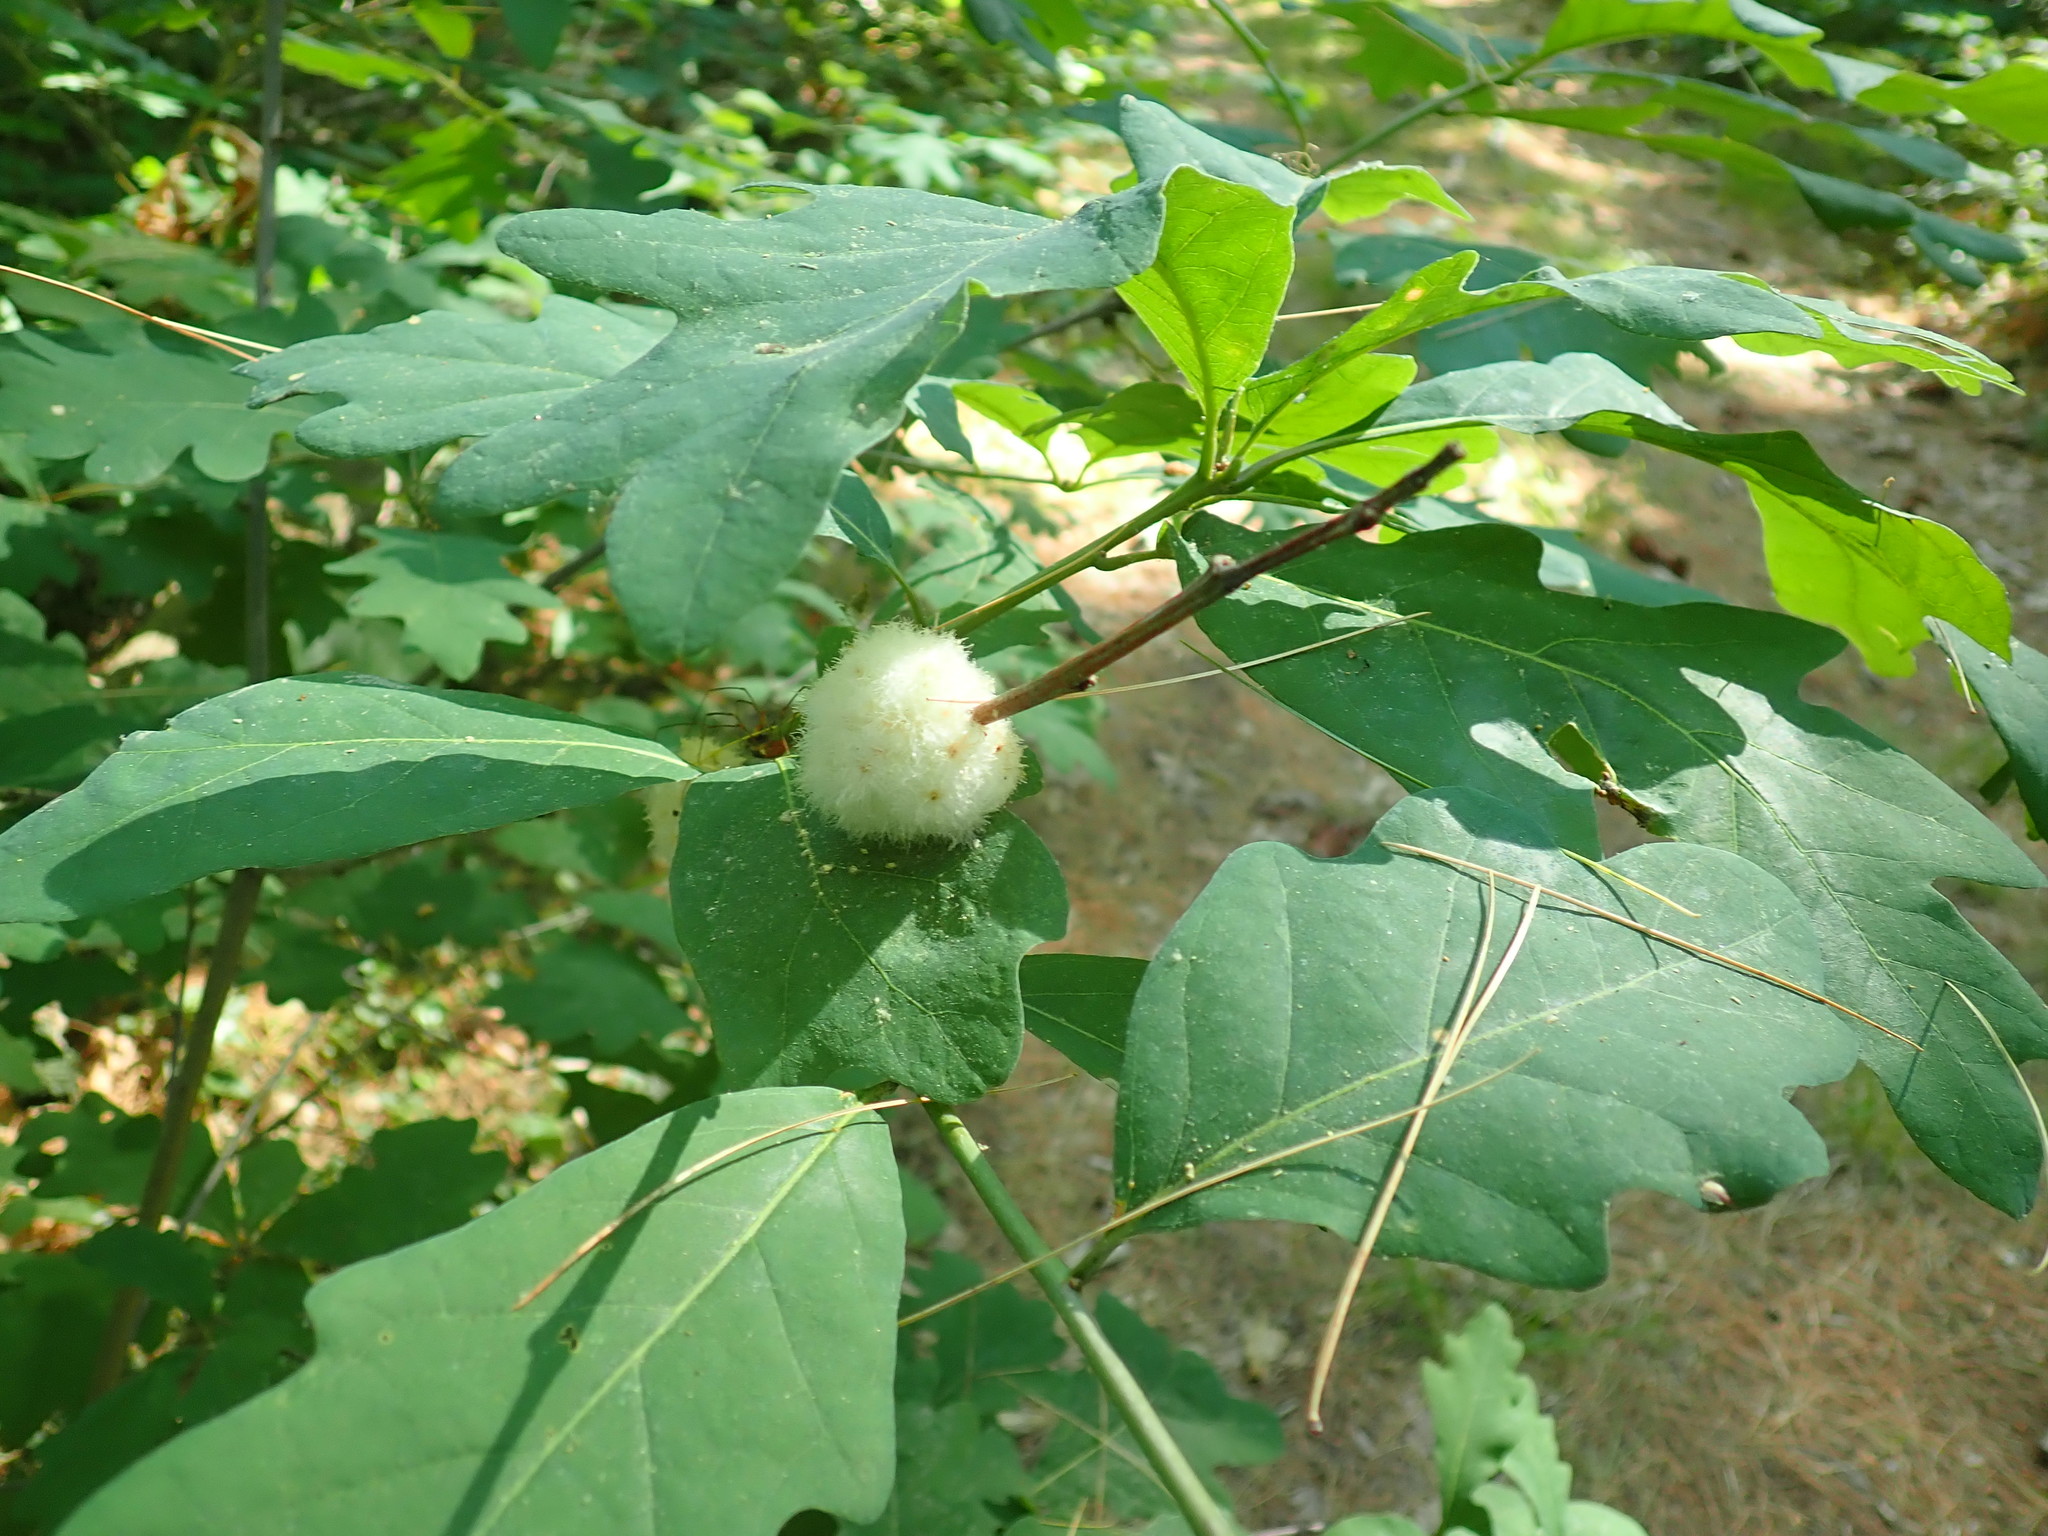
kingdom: Animalia
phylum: Arthropoda
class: Insecta
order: Hymenoptera
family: Cynipidae
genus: Callirhytis
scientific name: Callirhytis
